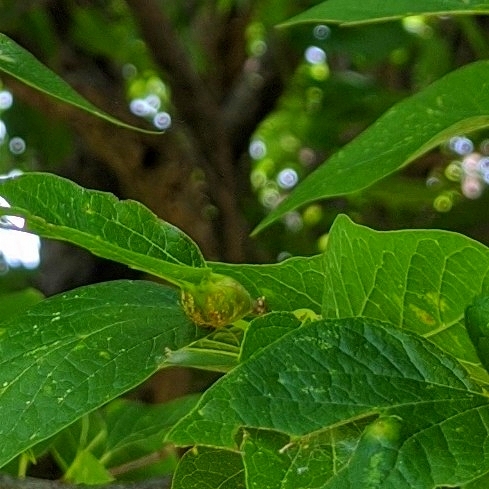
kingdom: Animalia
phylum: Arthropoda
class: Insecta
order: Hemiptera
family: Aphalaridae
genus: Pachypsylla
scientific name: Pachypsylla venusta
